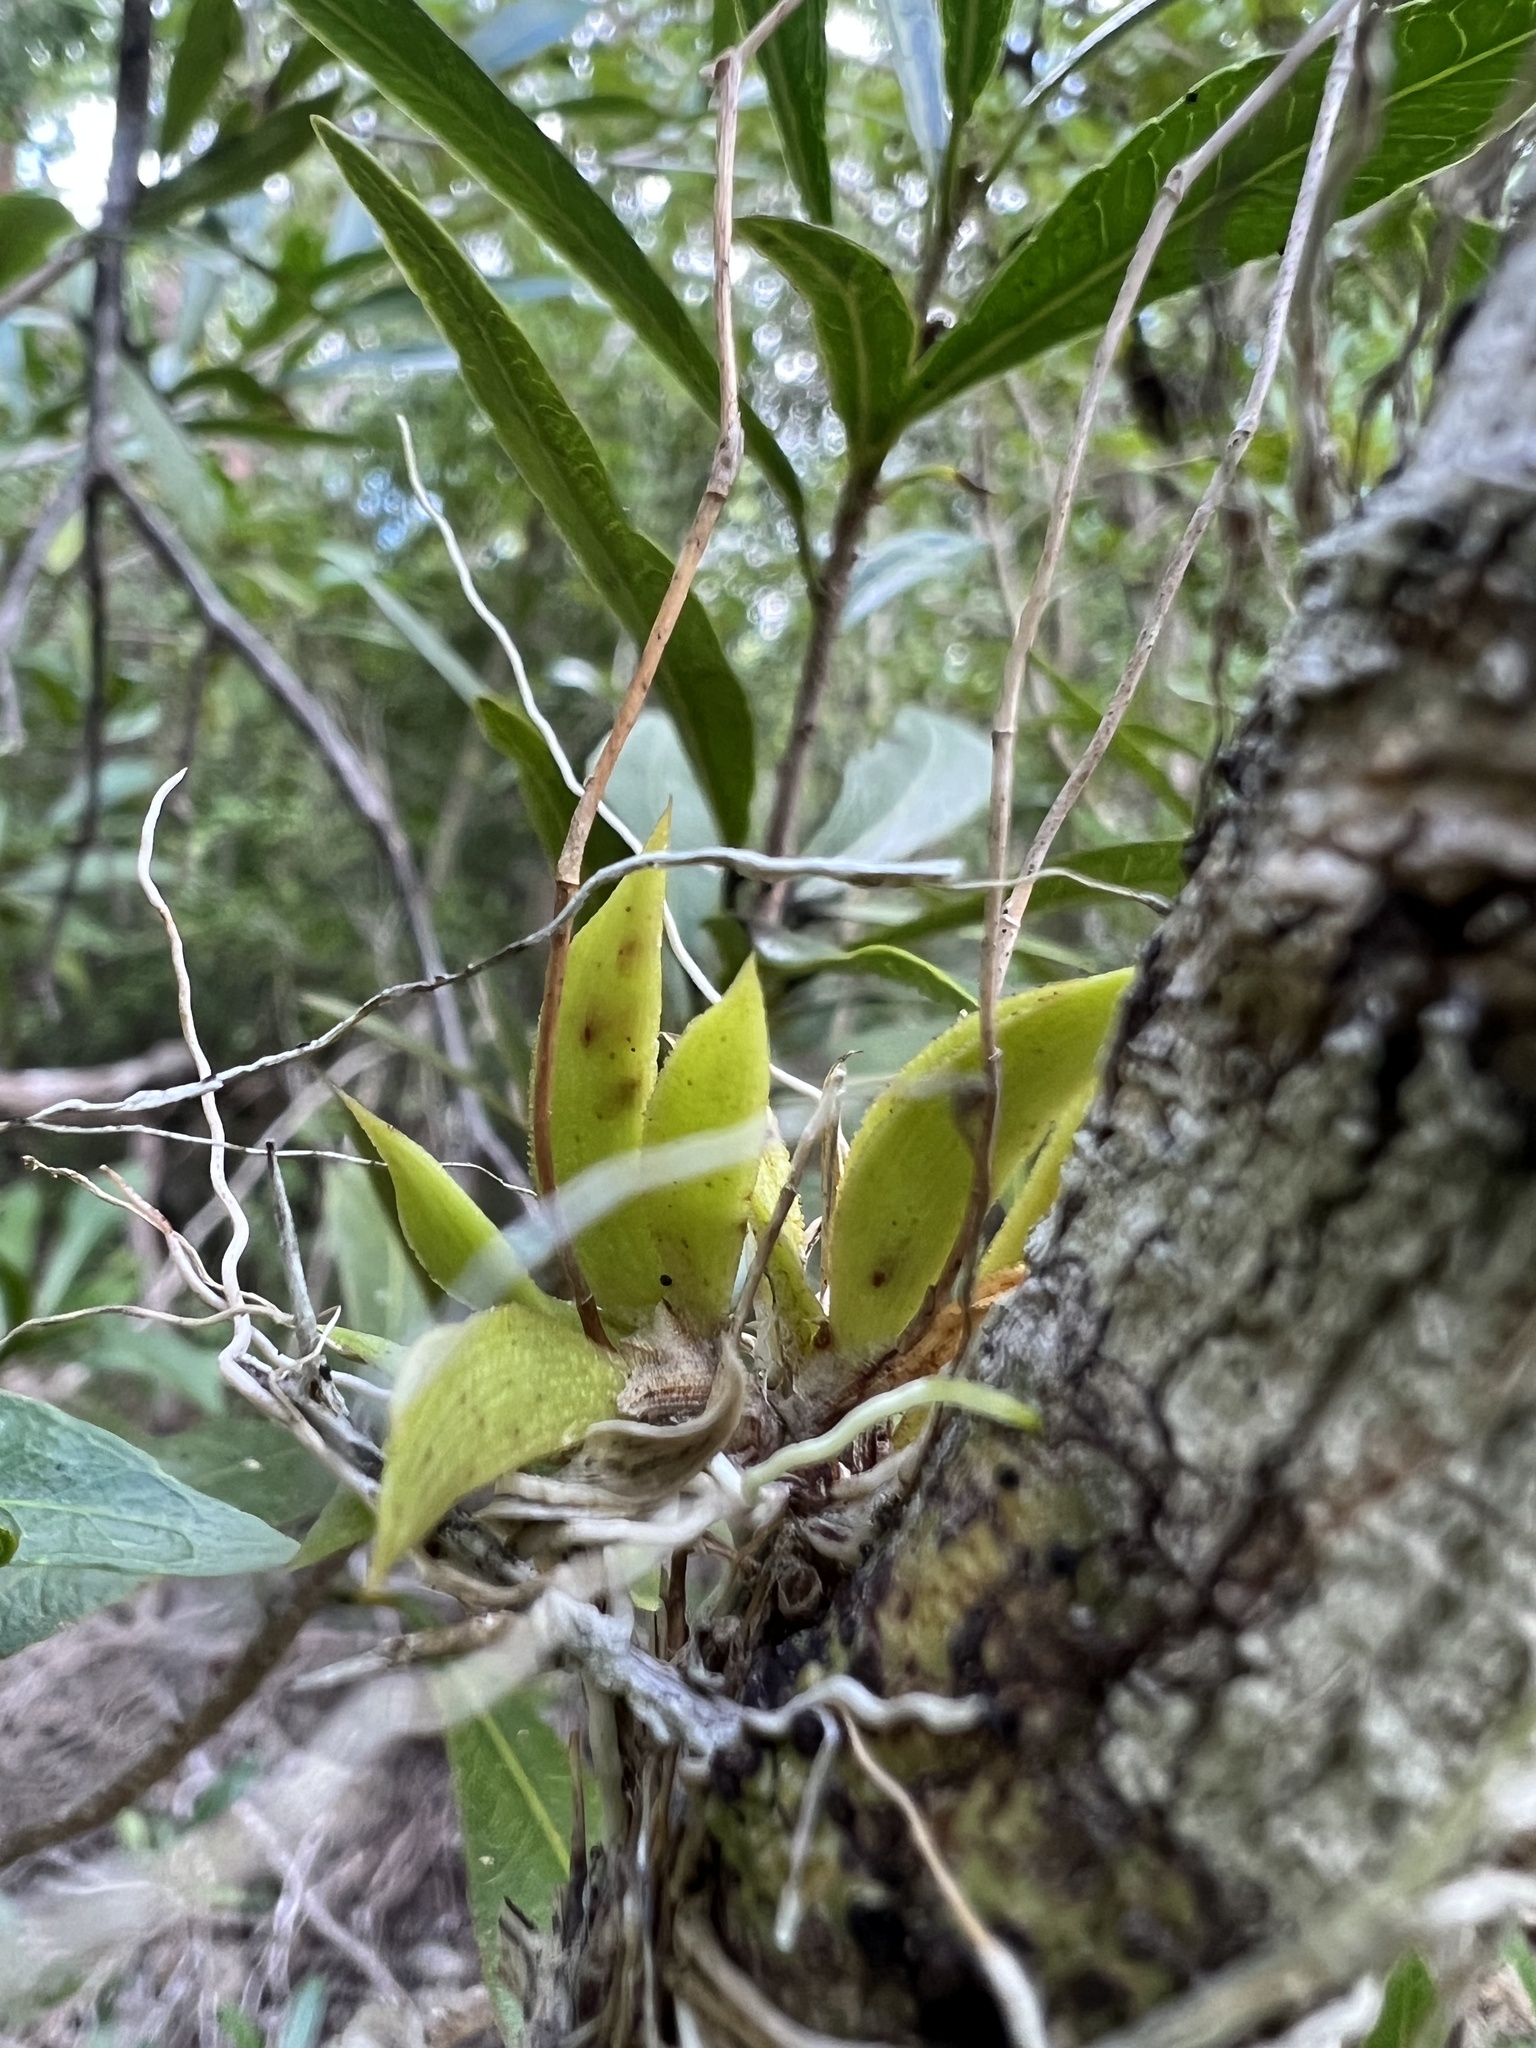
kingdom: Plantae
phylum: Tracheophyta
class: Liliopsida
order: Asparagales
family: Orchidaceae
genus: Tolumnia
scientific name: Tolumnia variegata
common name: Harlequin dancing-lady orchid
